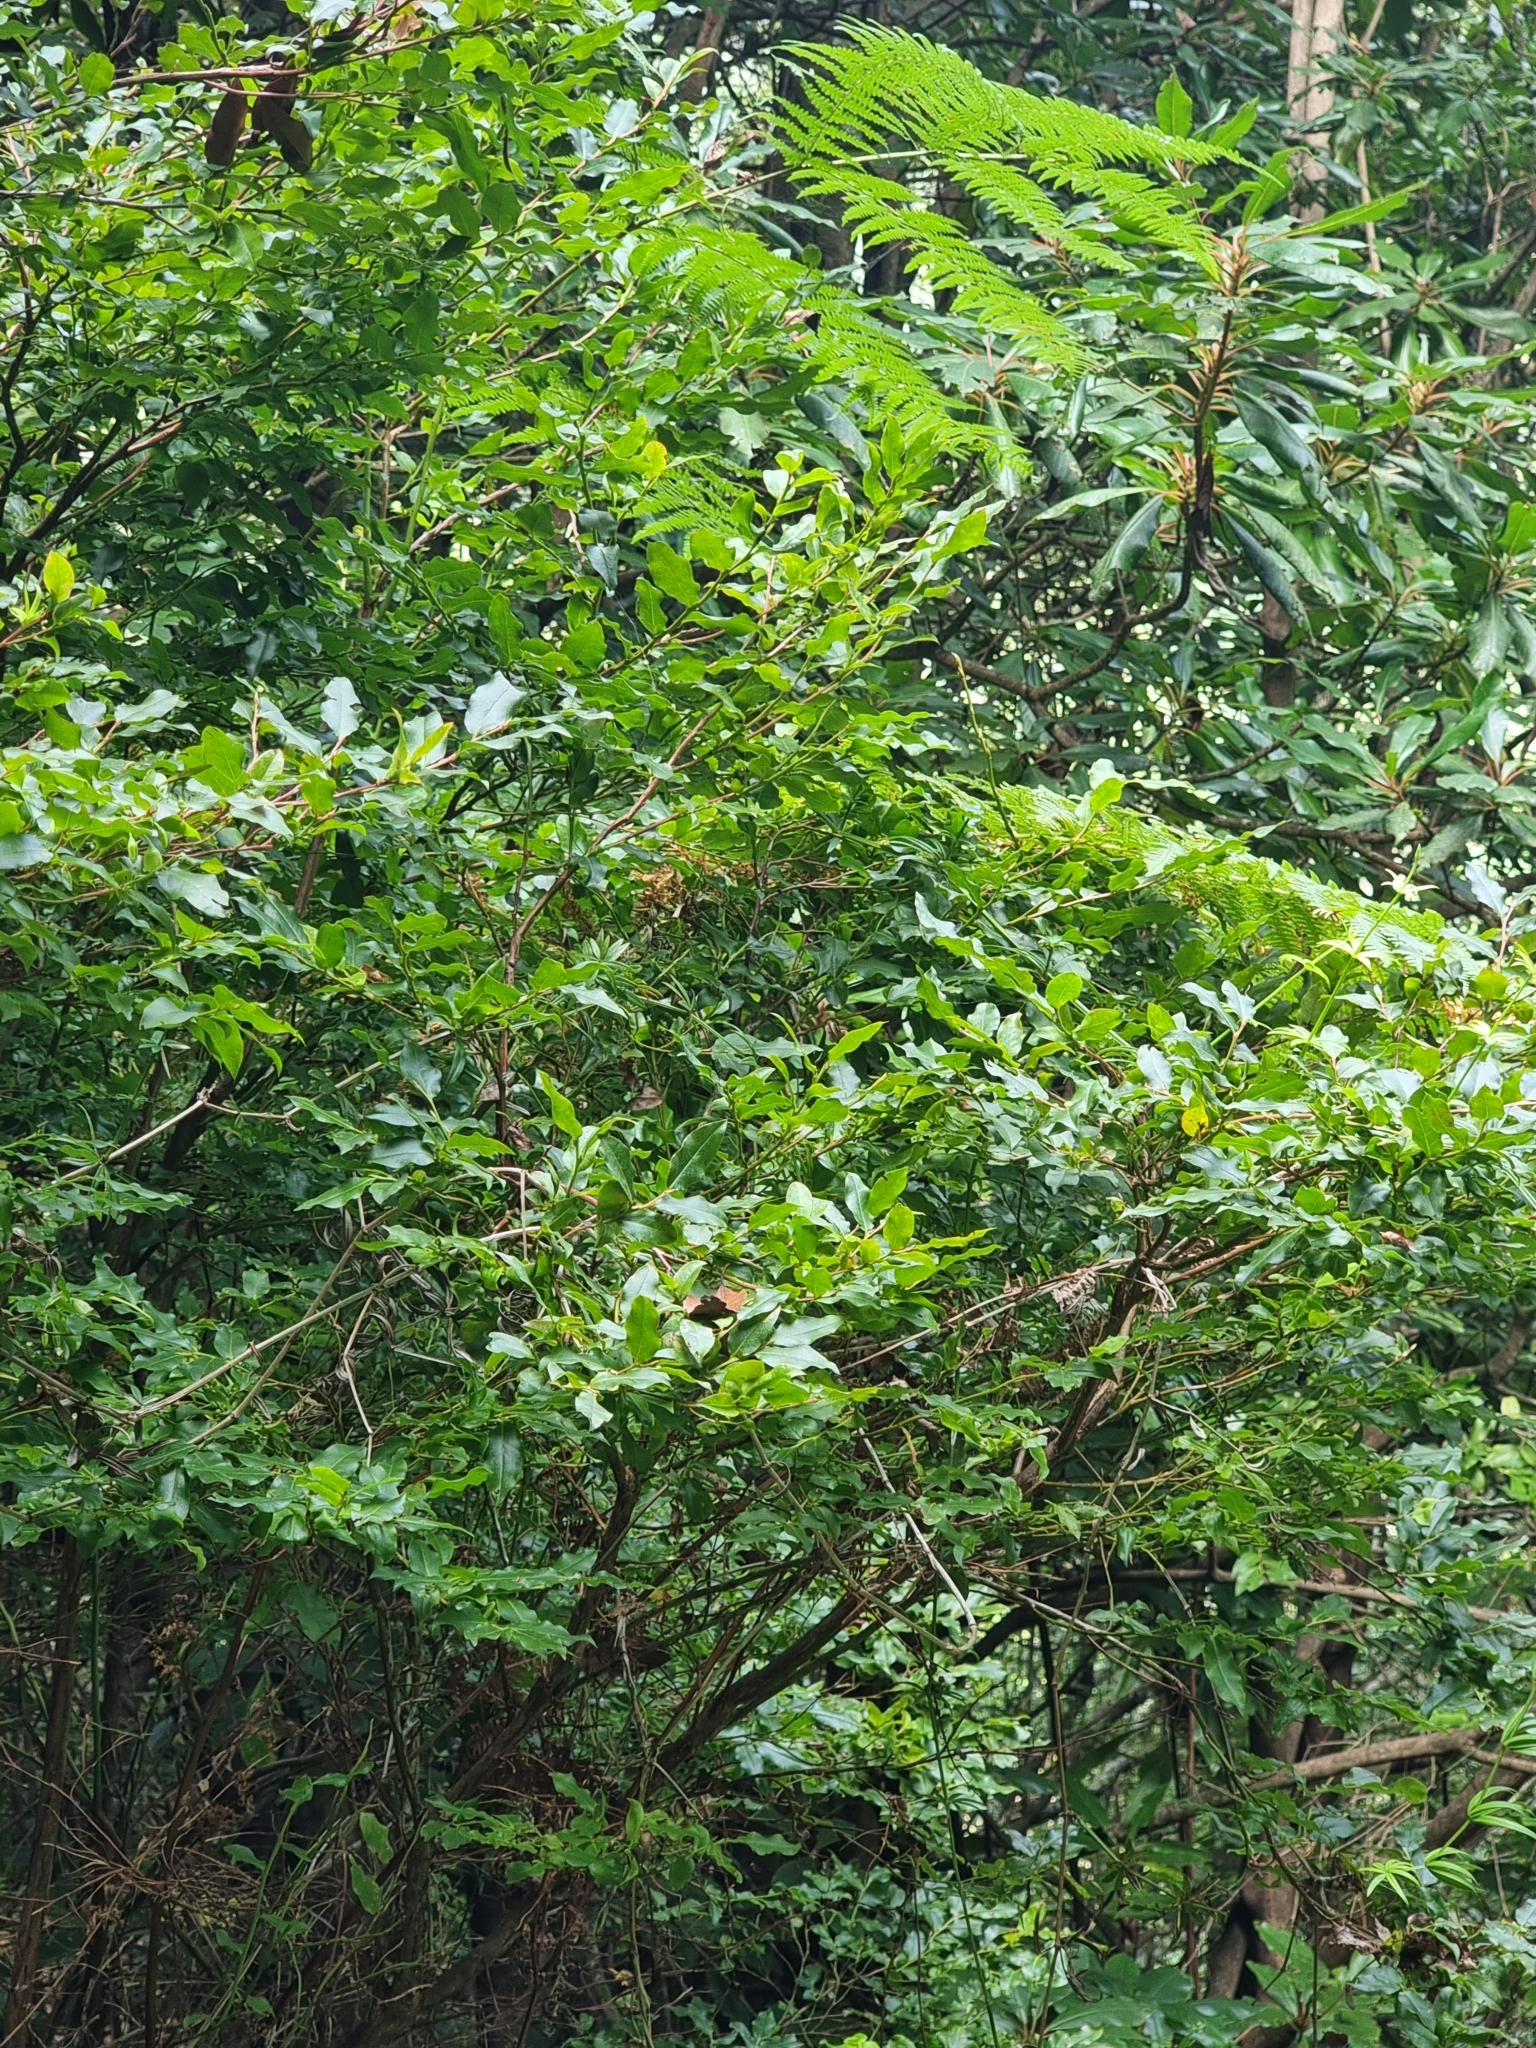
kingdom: Plantae
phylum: Tracheophyta
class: Magnoliopsida
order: Ericales
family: Ericaceae
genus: Vaccinium
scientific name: Vaccinium padifolium
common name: Madeiran blueberry
